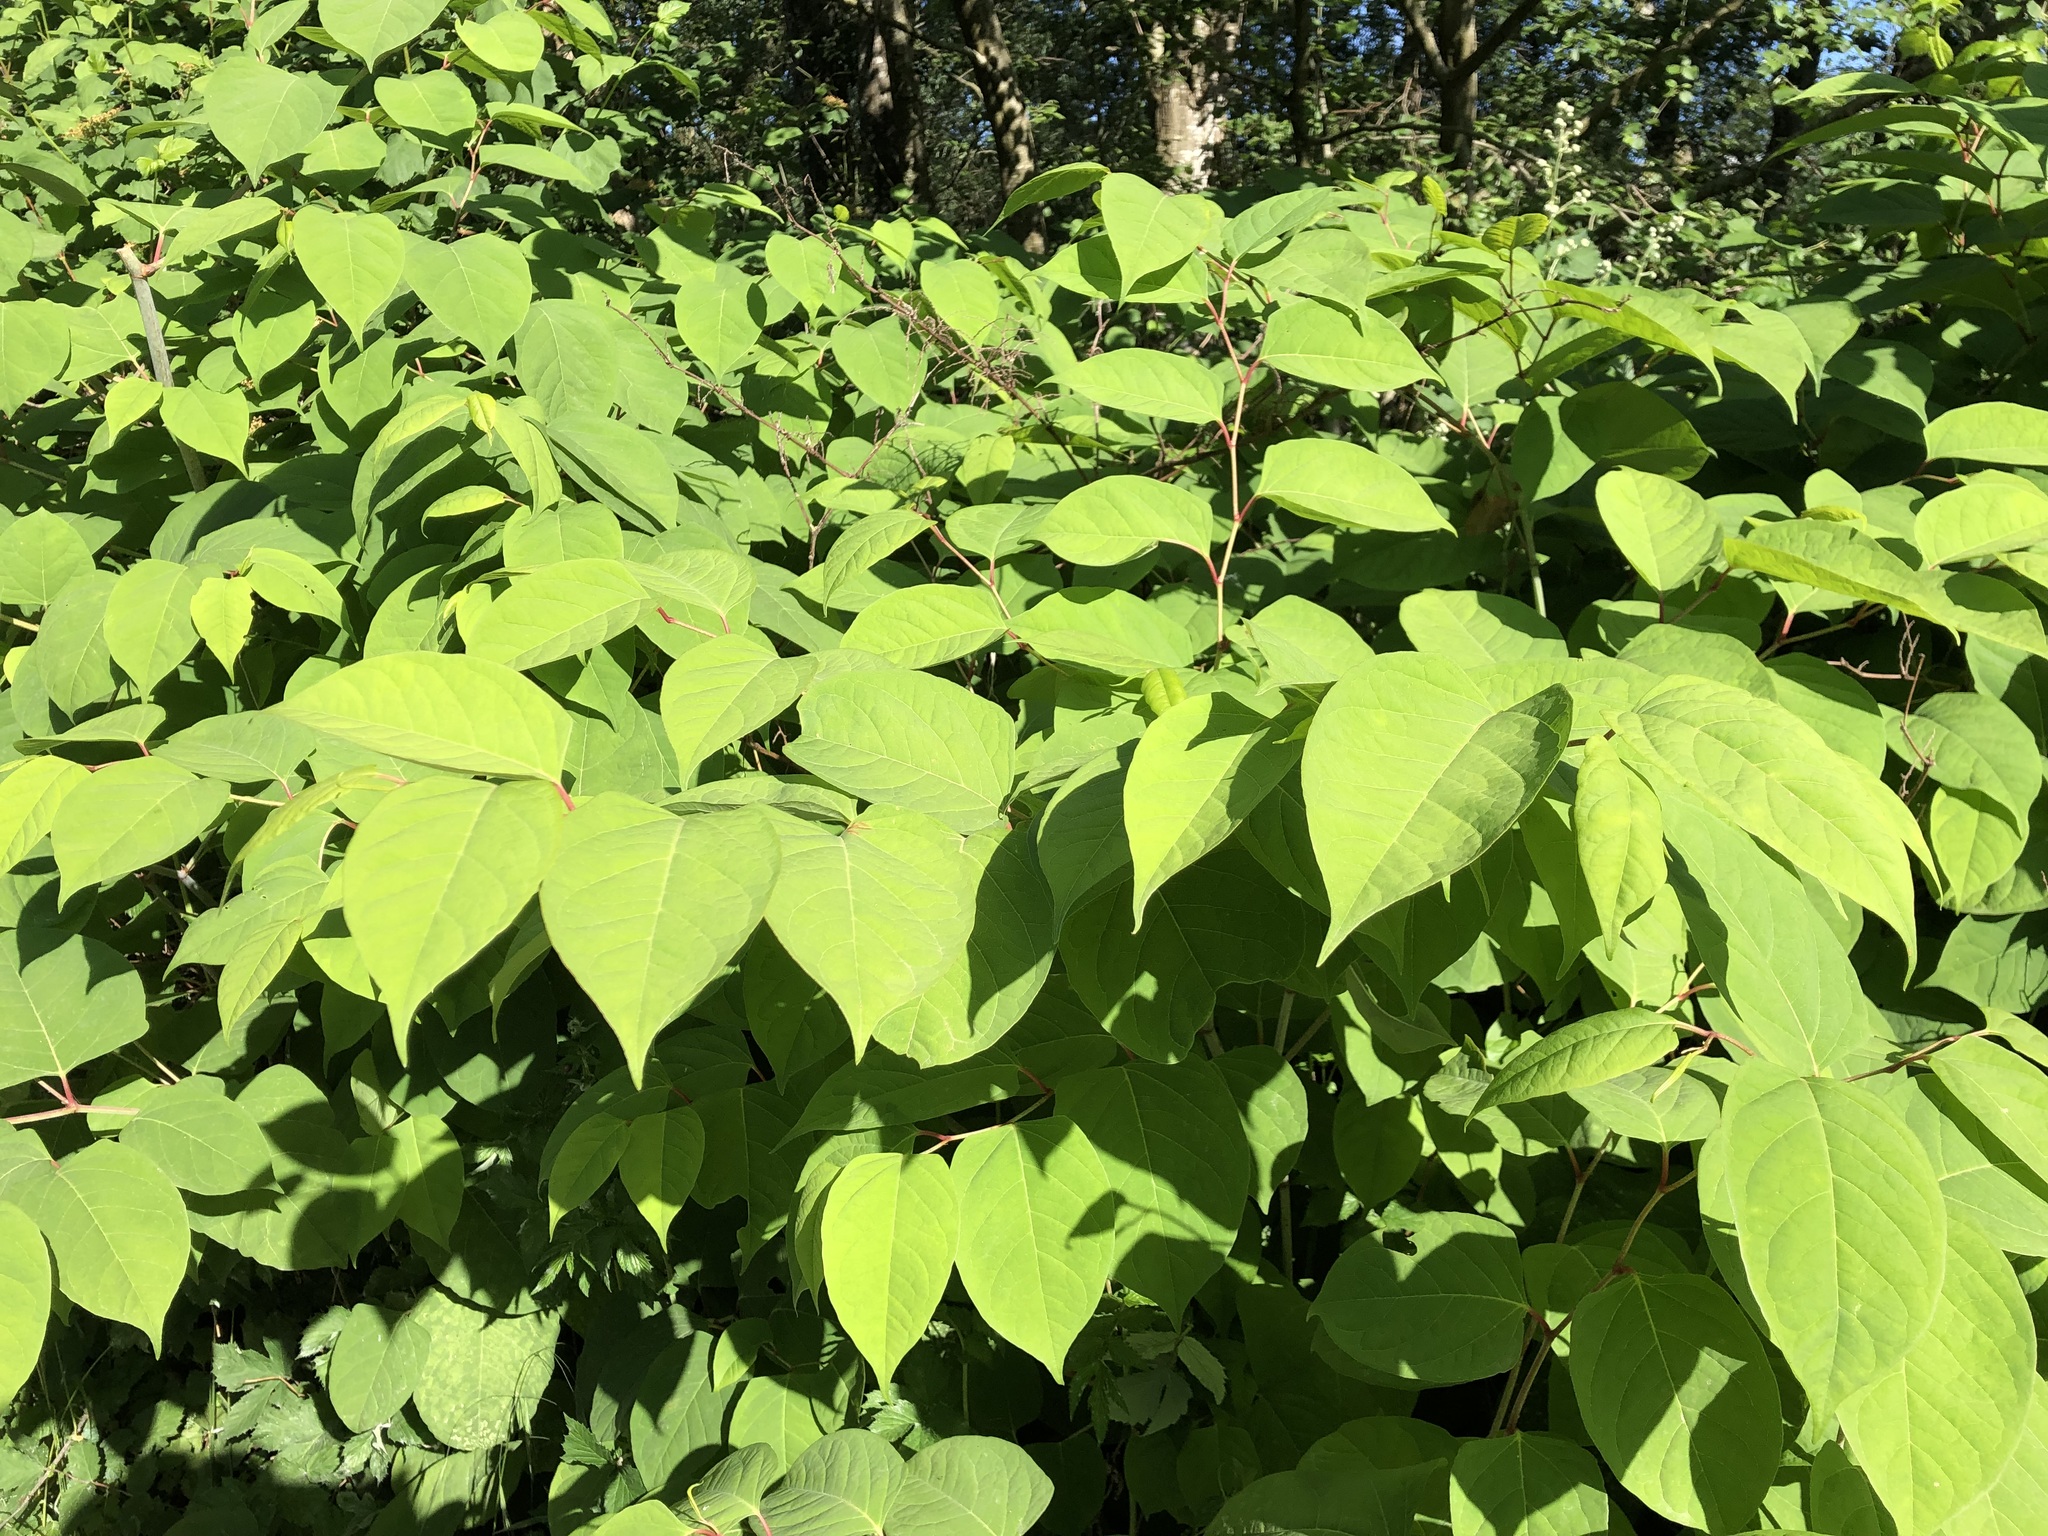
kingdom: Plantae
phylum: Tracheophyta
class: Magnoliopsida
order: Caryophyllales
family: Polygonaceae
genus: Reynoutria
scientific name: Reynoutria japonica
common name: Japanese knotweed
